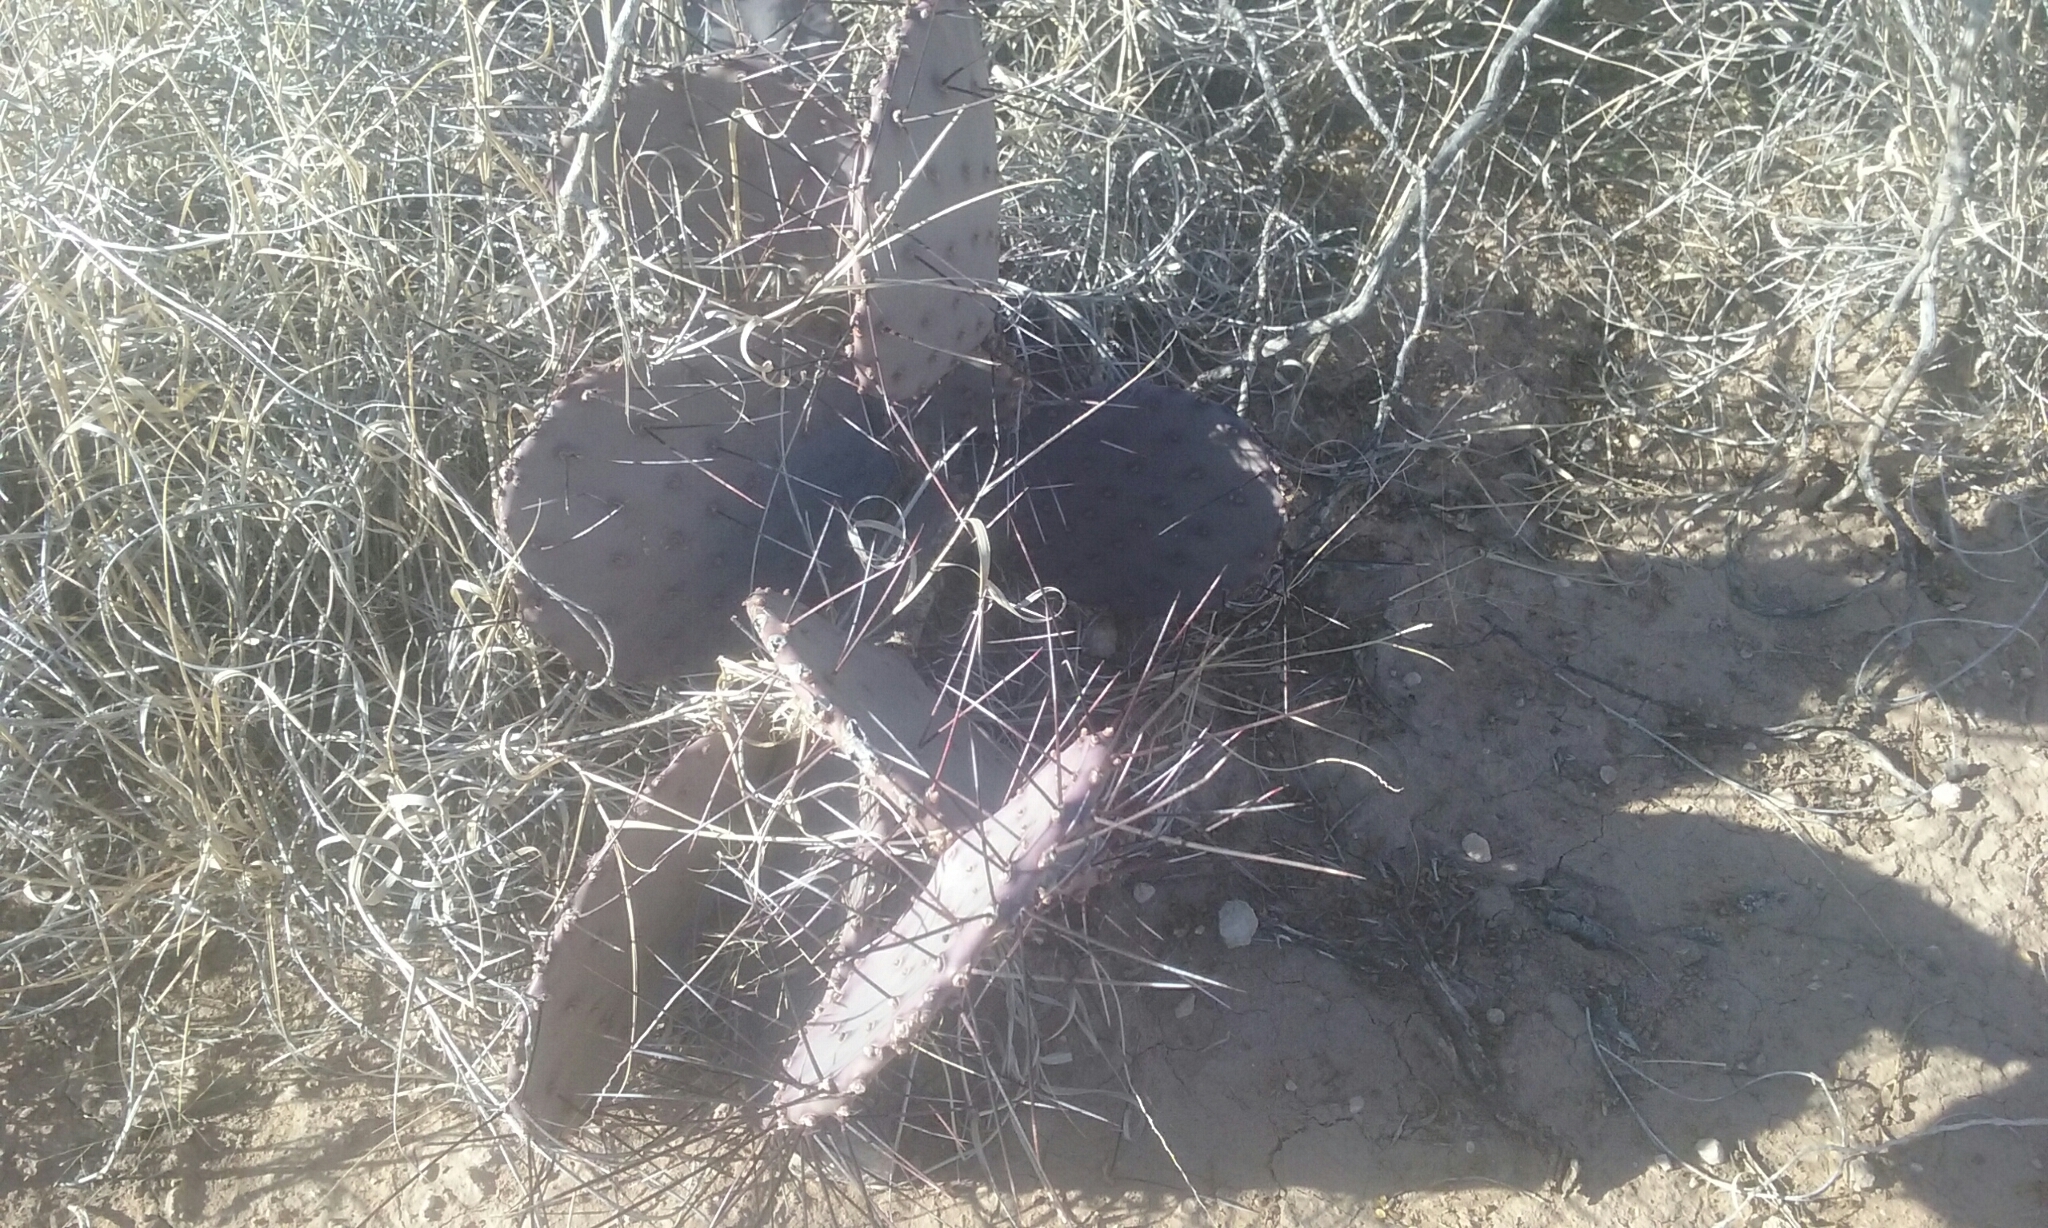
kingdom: Plantae
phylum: Tracheophyta
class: Magnoliopsida
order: Caryophyllales
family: Cactaceae
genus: Opuntia
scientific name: Opuntia macrocentra
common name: Purple prickly-pear
